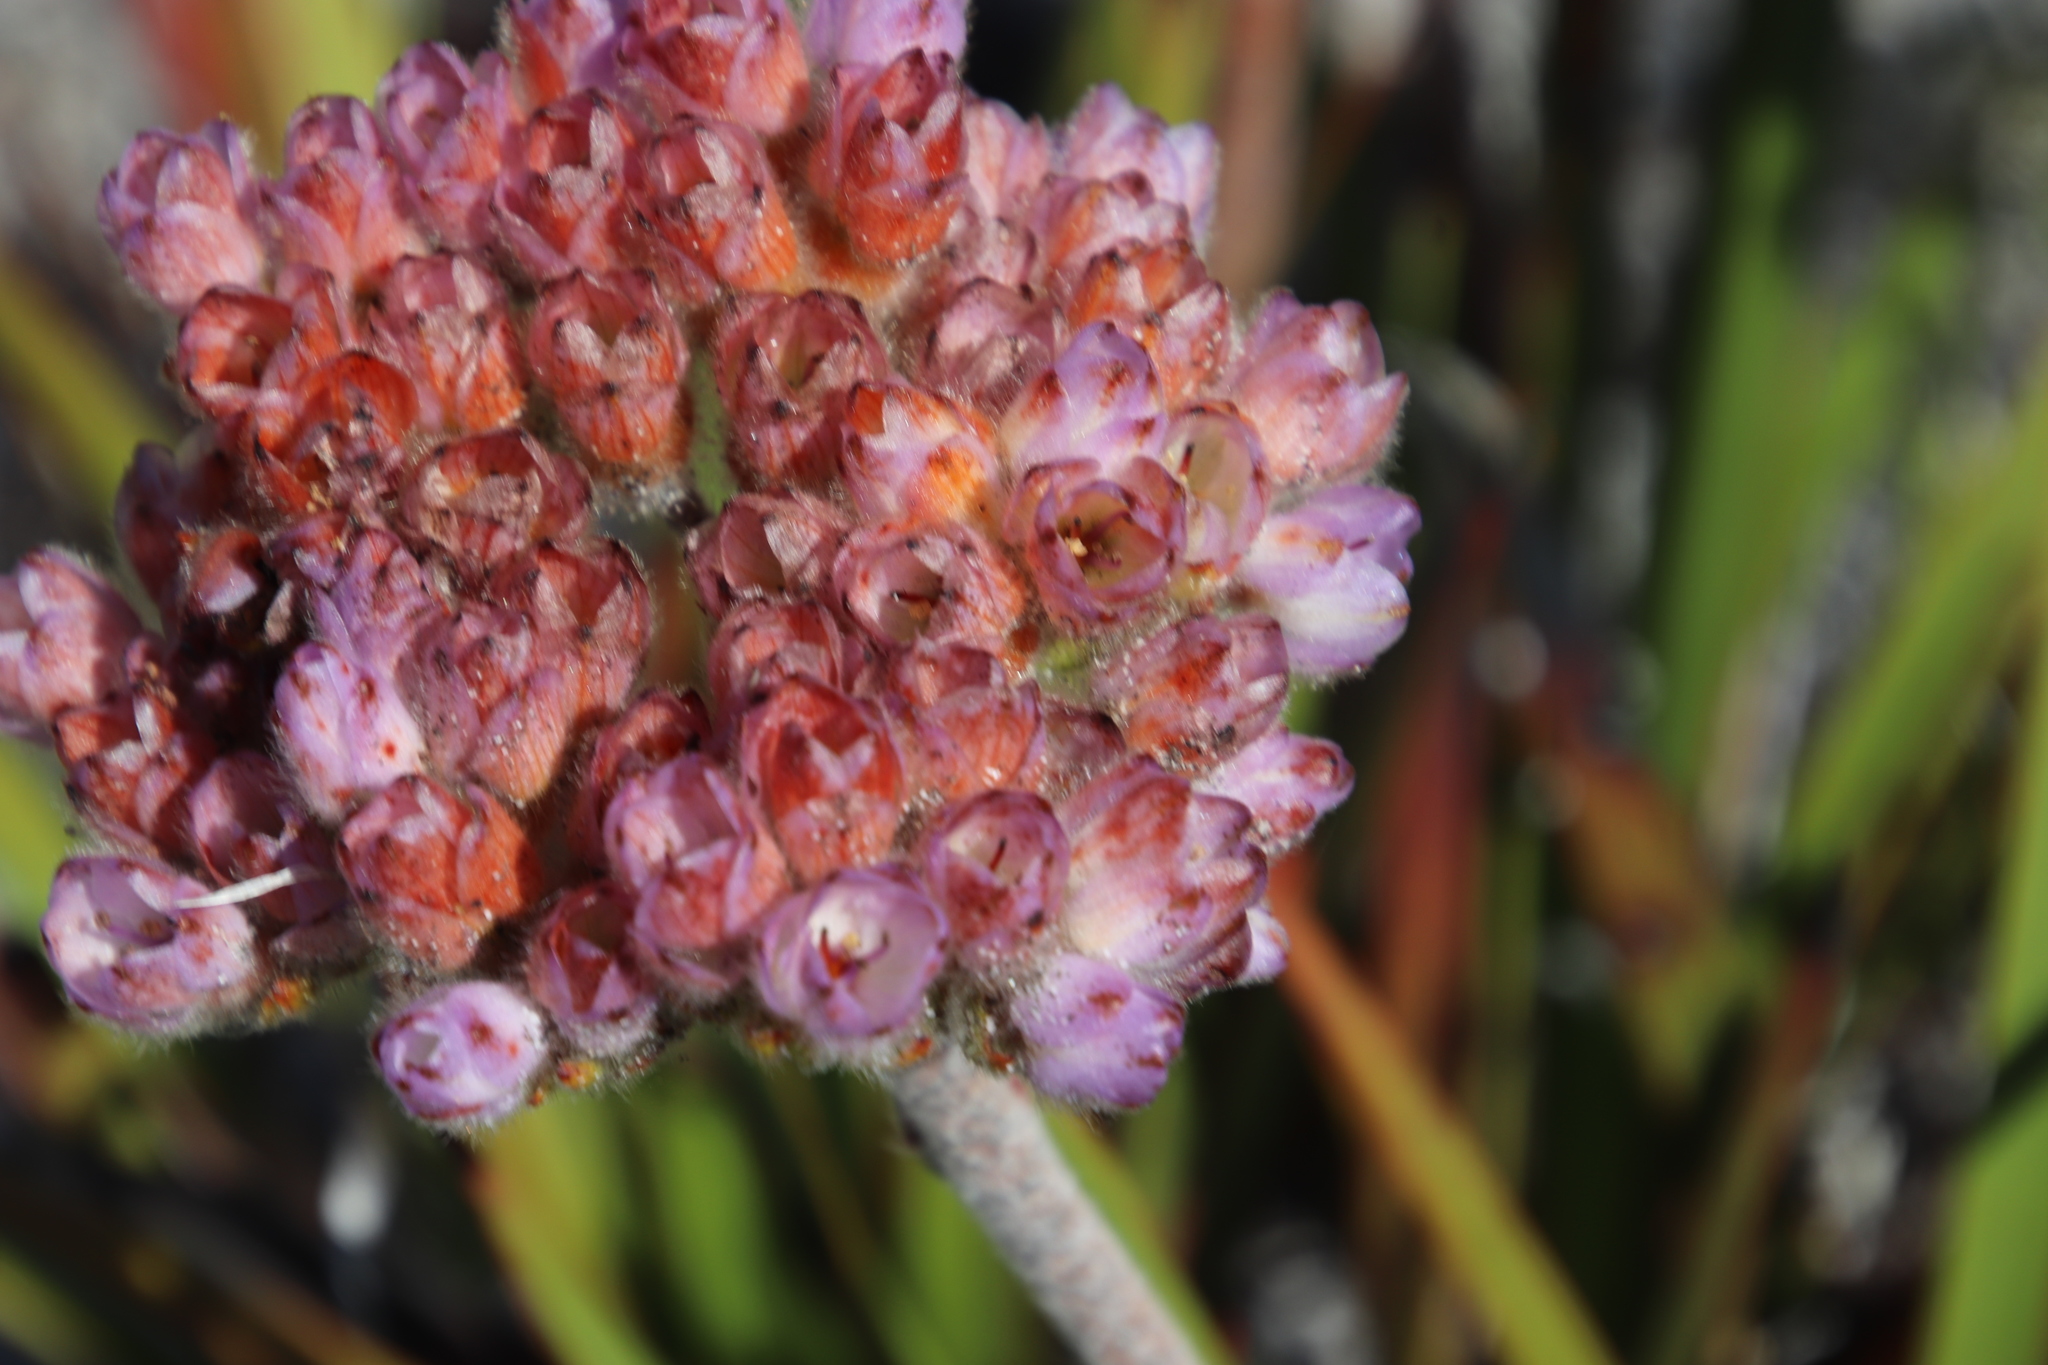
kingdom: Plantae
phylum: Tracheophyta
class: Liliopsida
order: Commelinales
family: Haemodoraceae
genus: Dilatris
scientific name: Dilatris pillansii
